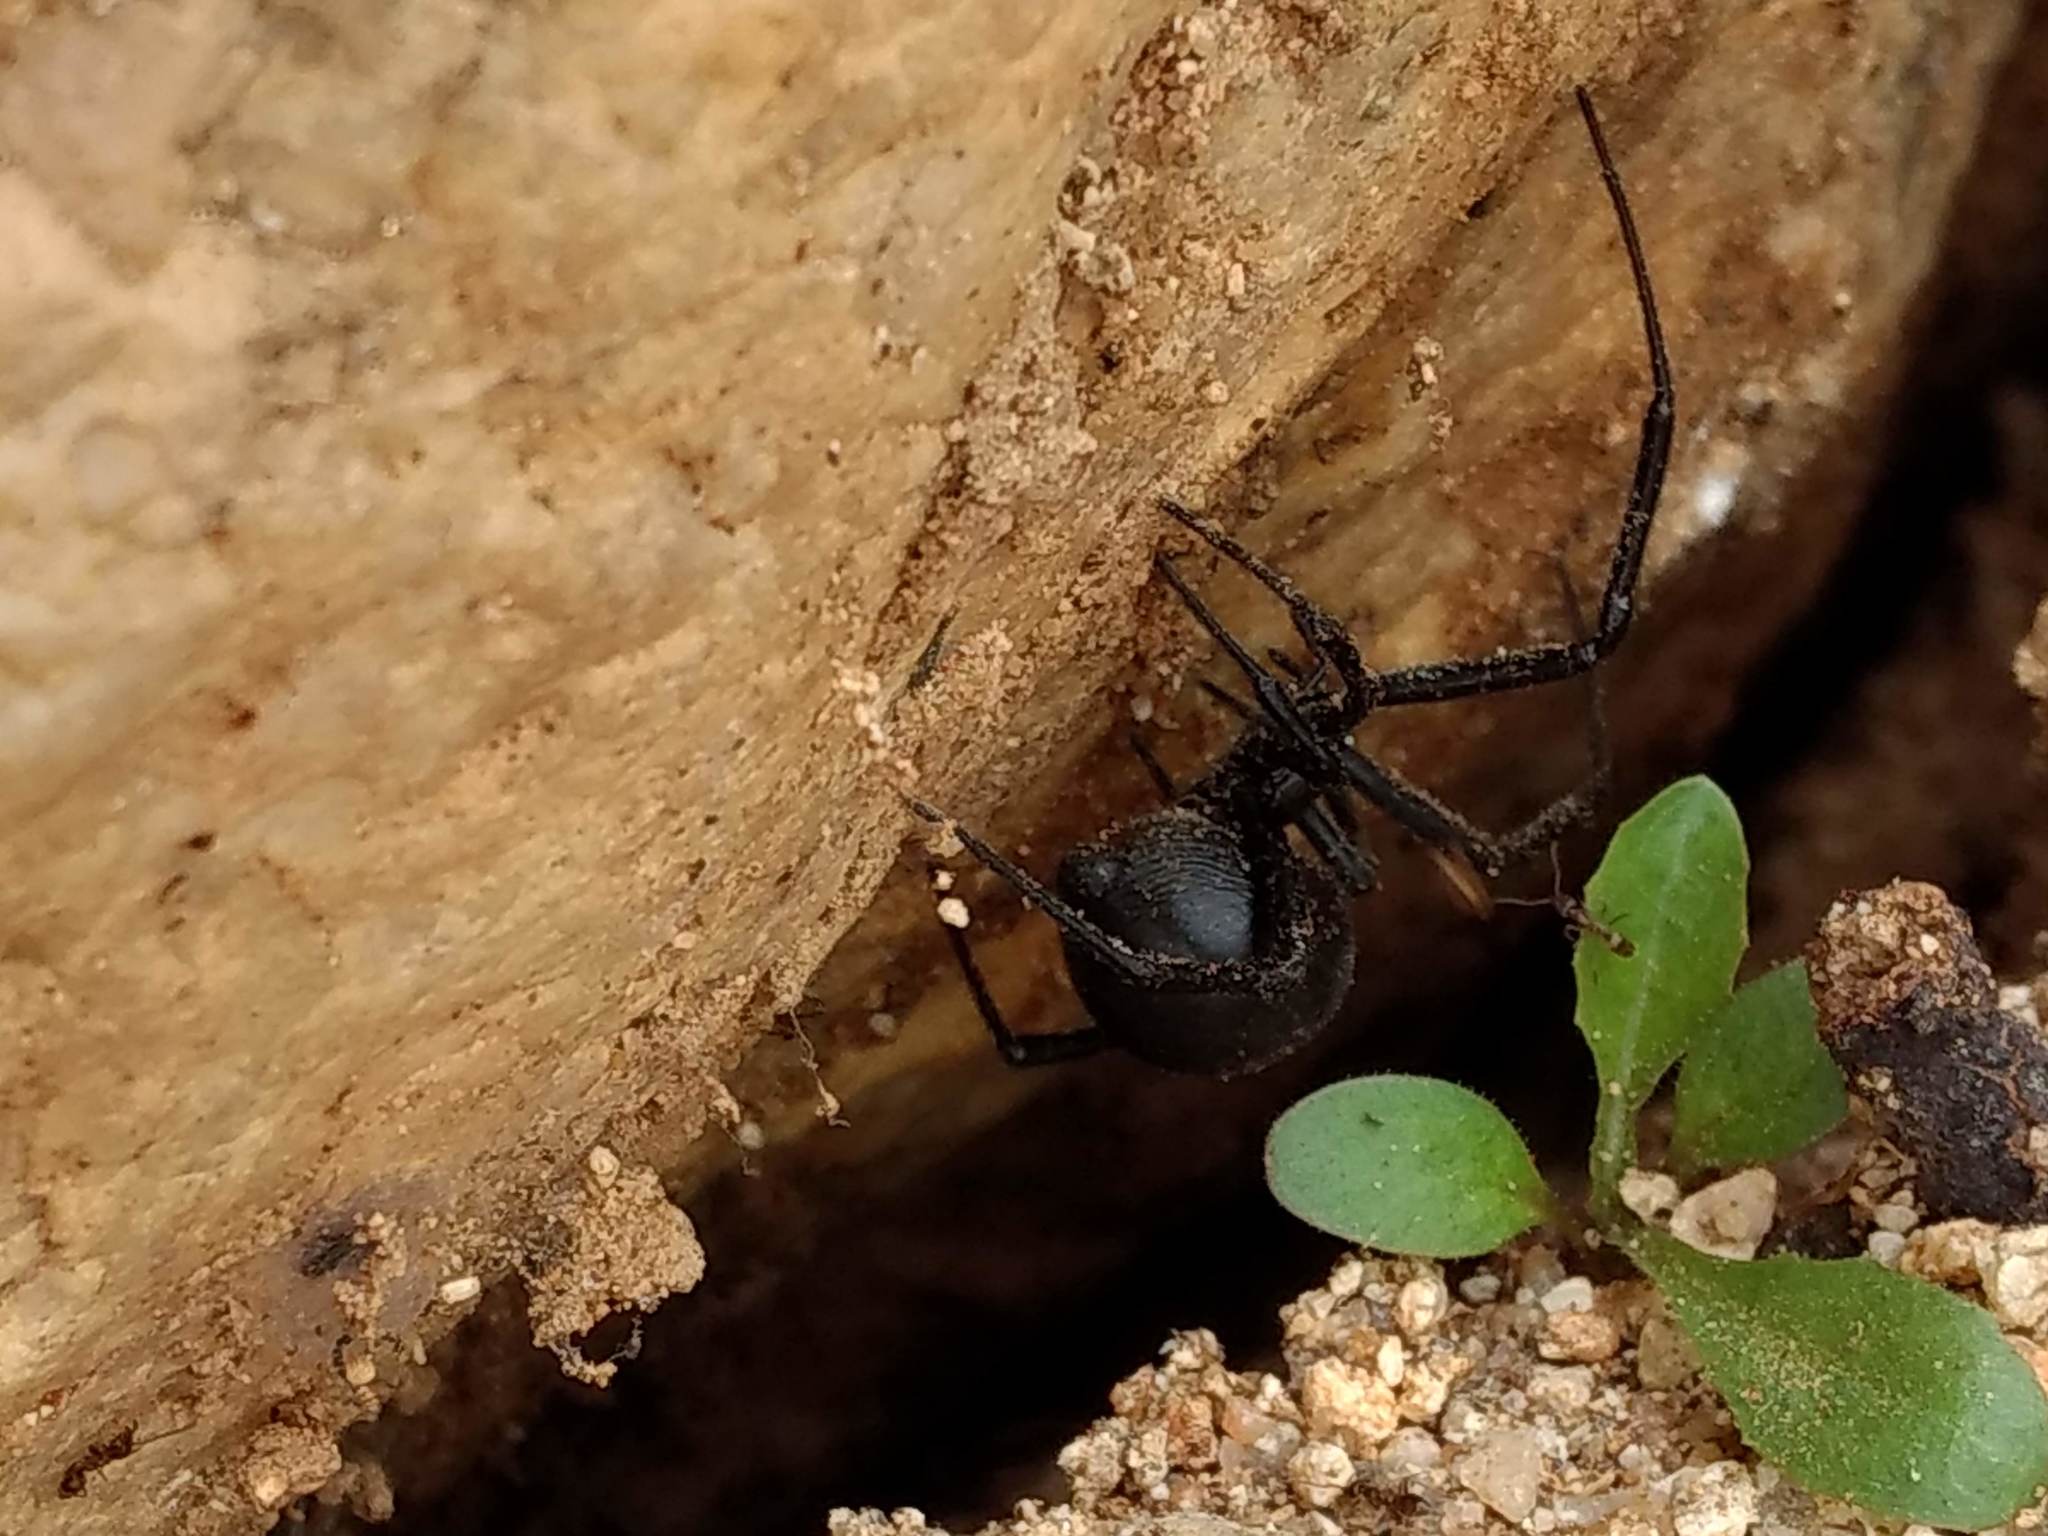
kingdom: Animalia
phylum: Arthropoda
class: Arachnida
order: Araneae
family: Theridiidae
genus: Latrodectus
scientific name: Latrodectus hesperus
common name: Western black widow
